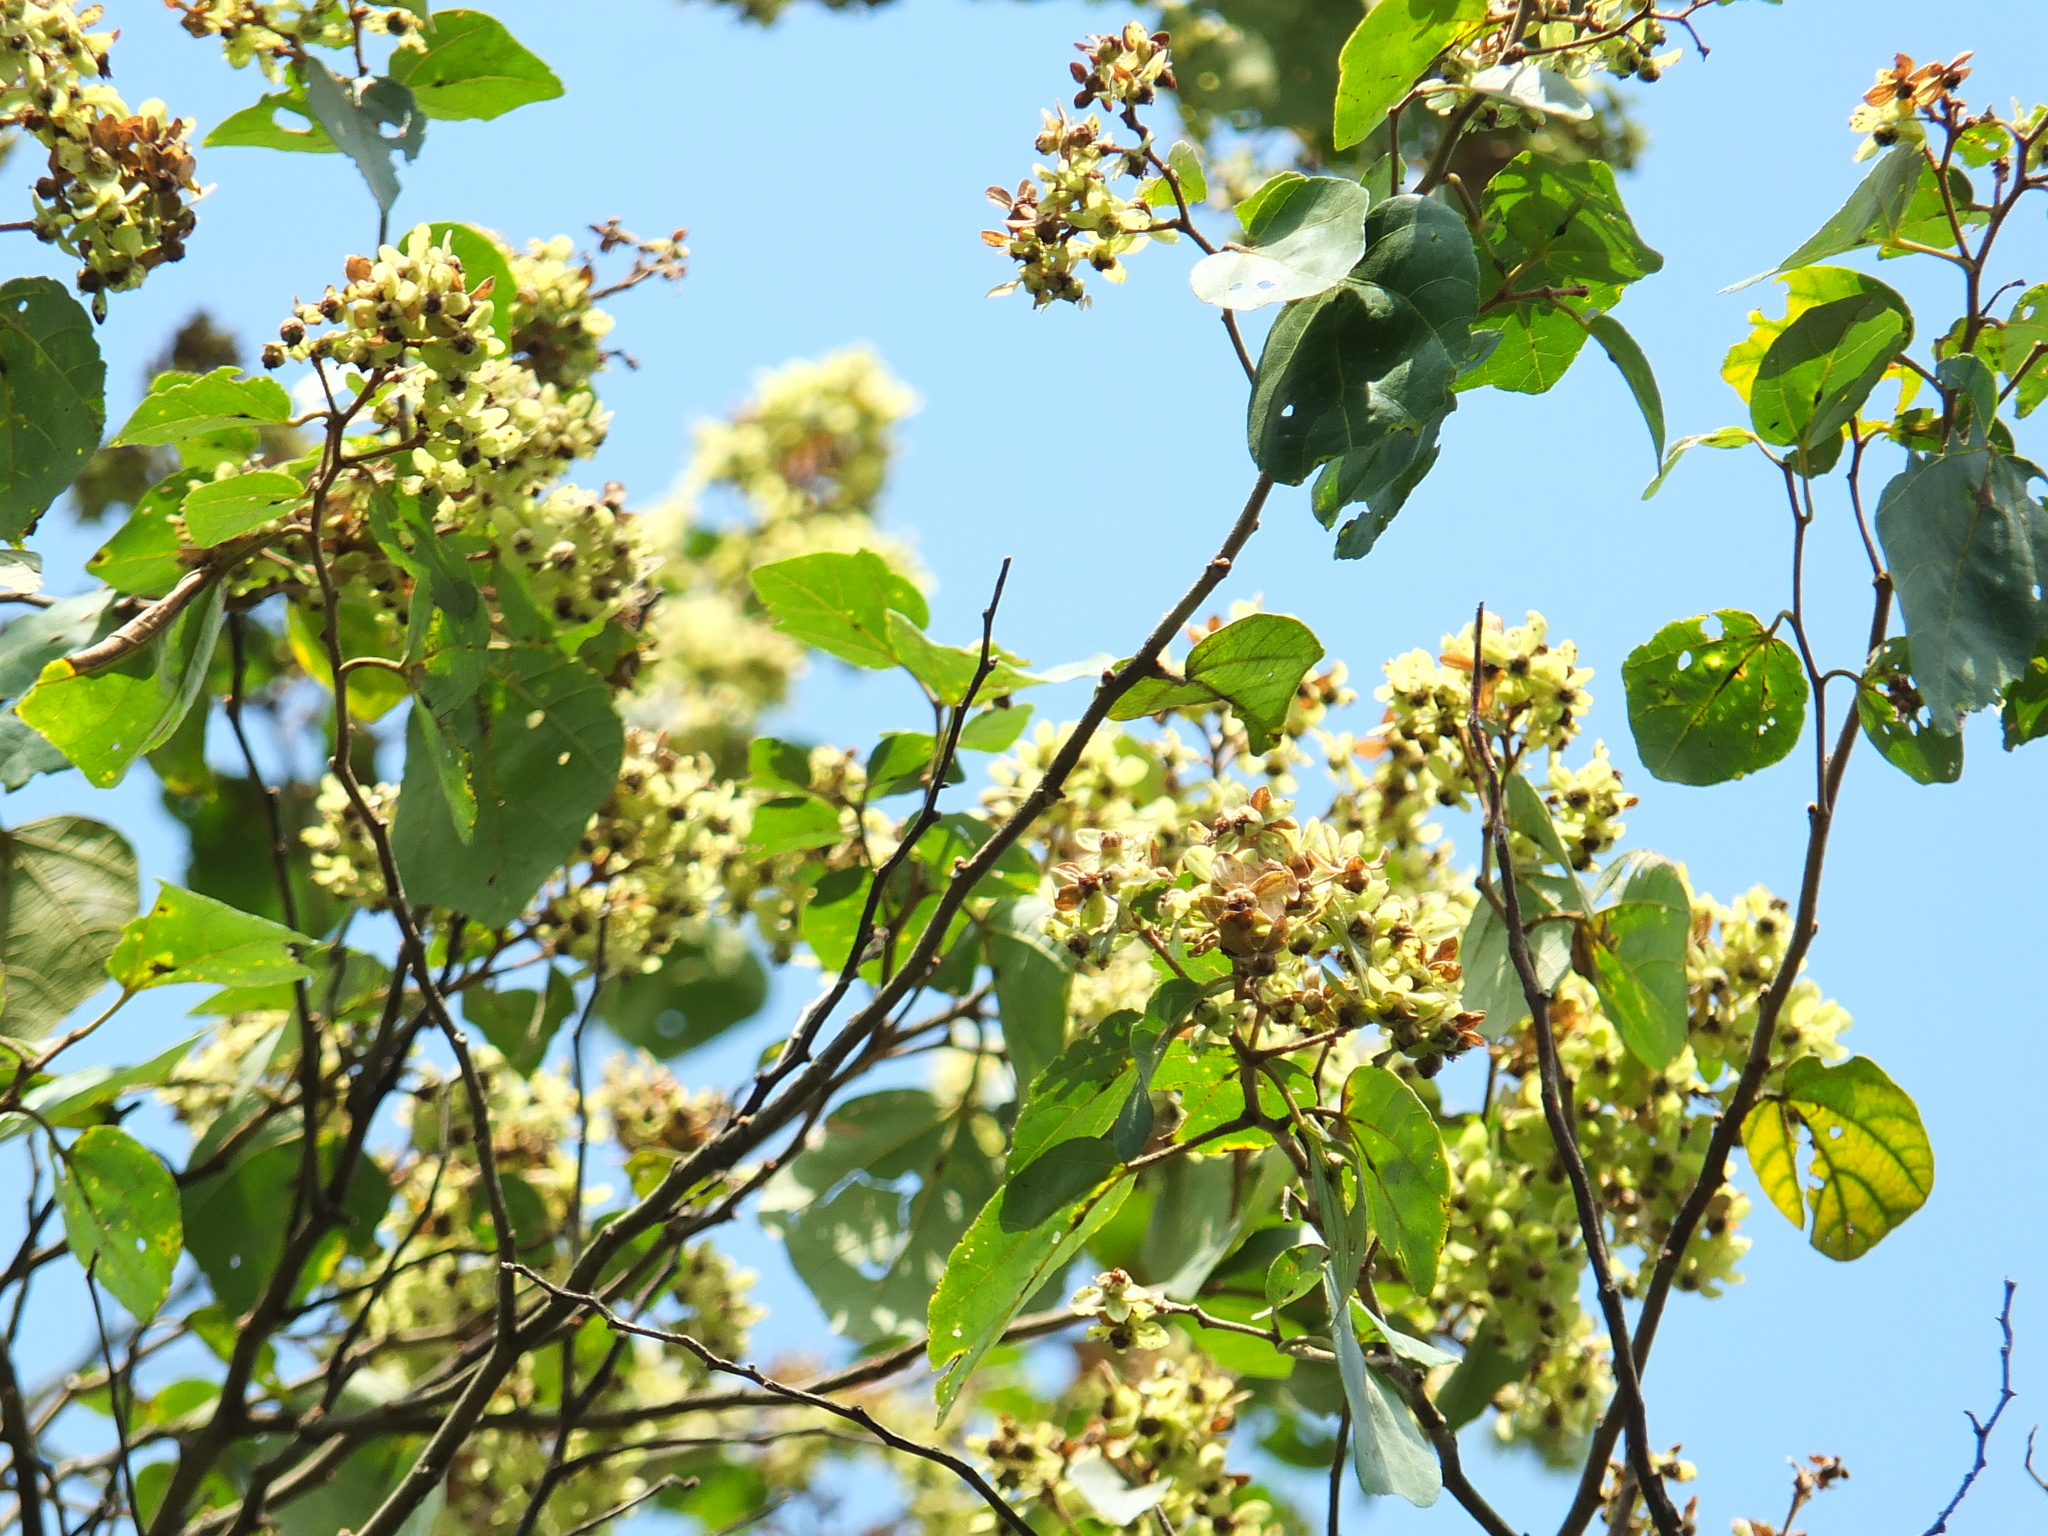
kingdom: Plantae
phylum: Tracheophyta
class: Magnoliopsida
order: Malvales
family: Malvaceae
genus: Kydia
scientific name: Kydia calycina
